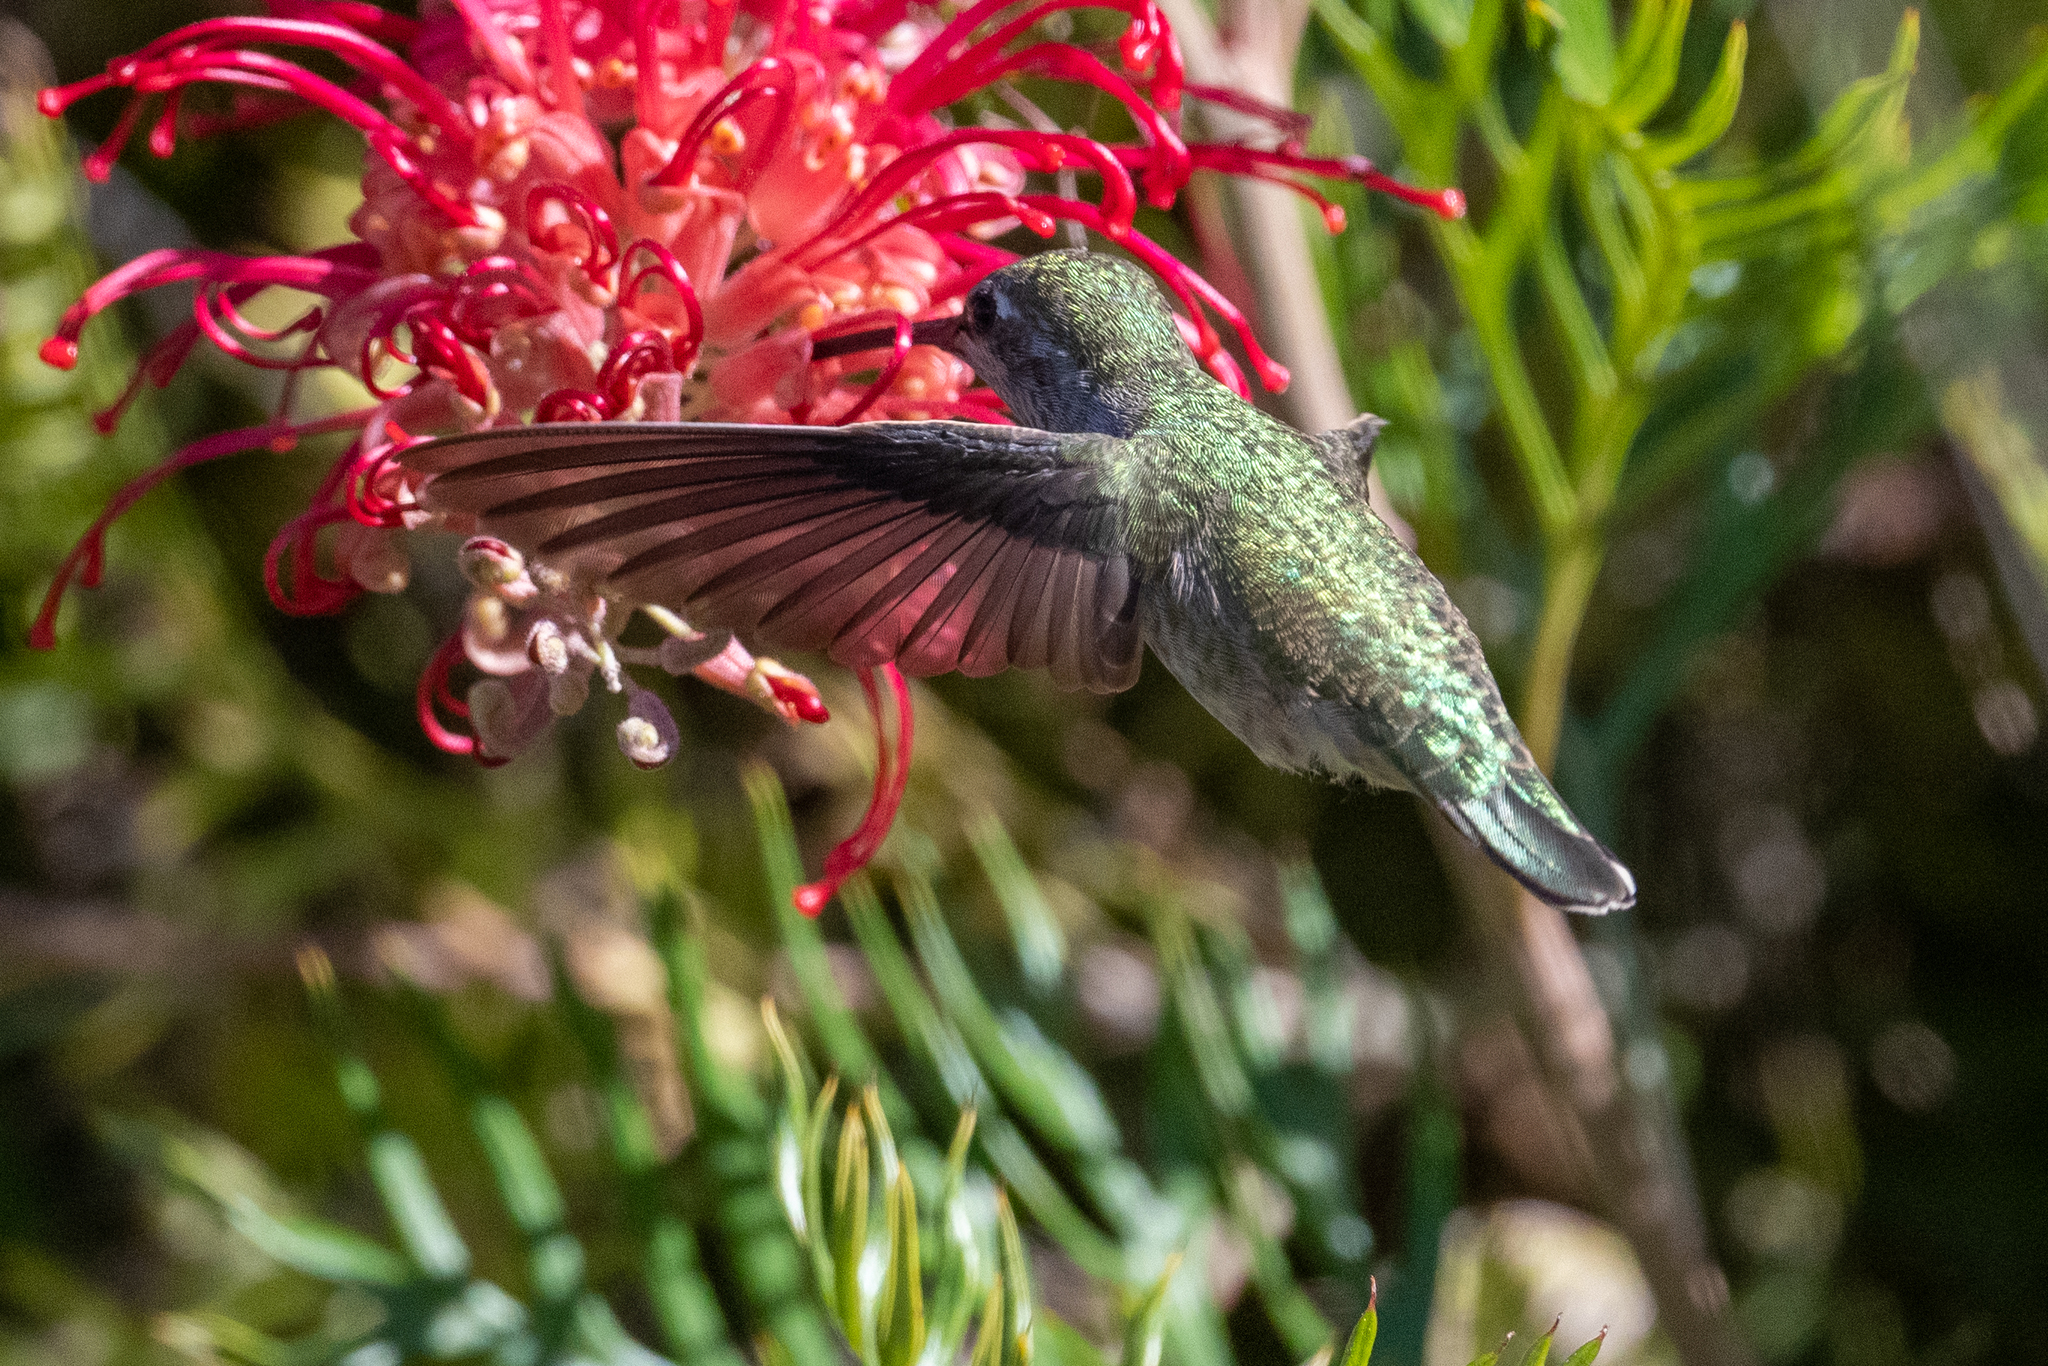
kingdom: Animalia
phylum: Chordata
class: Aves
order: Apodiformes
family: Trochilidae
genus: Calypte
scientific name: Calypte anna
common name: Anna's hummingbird
